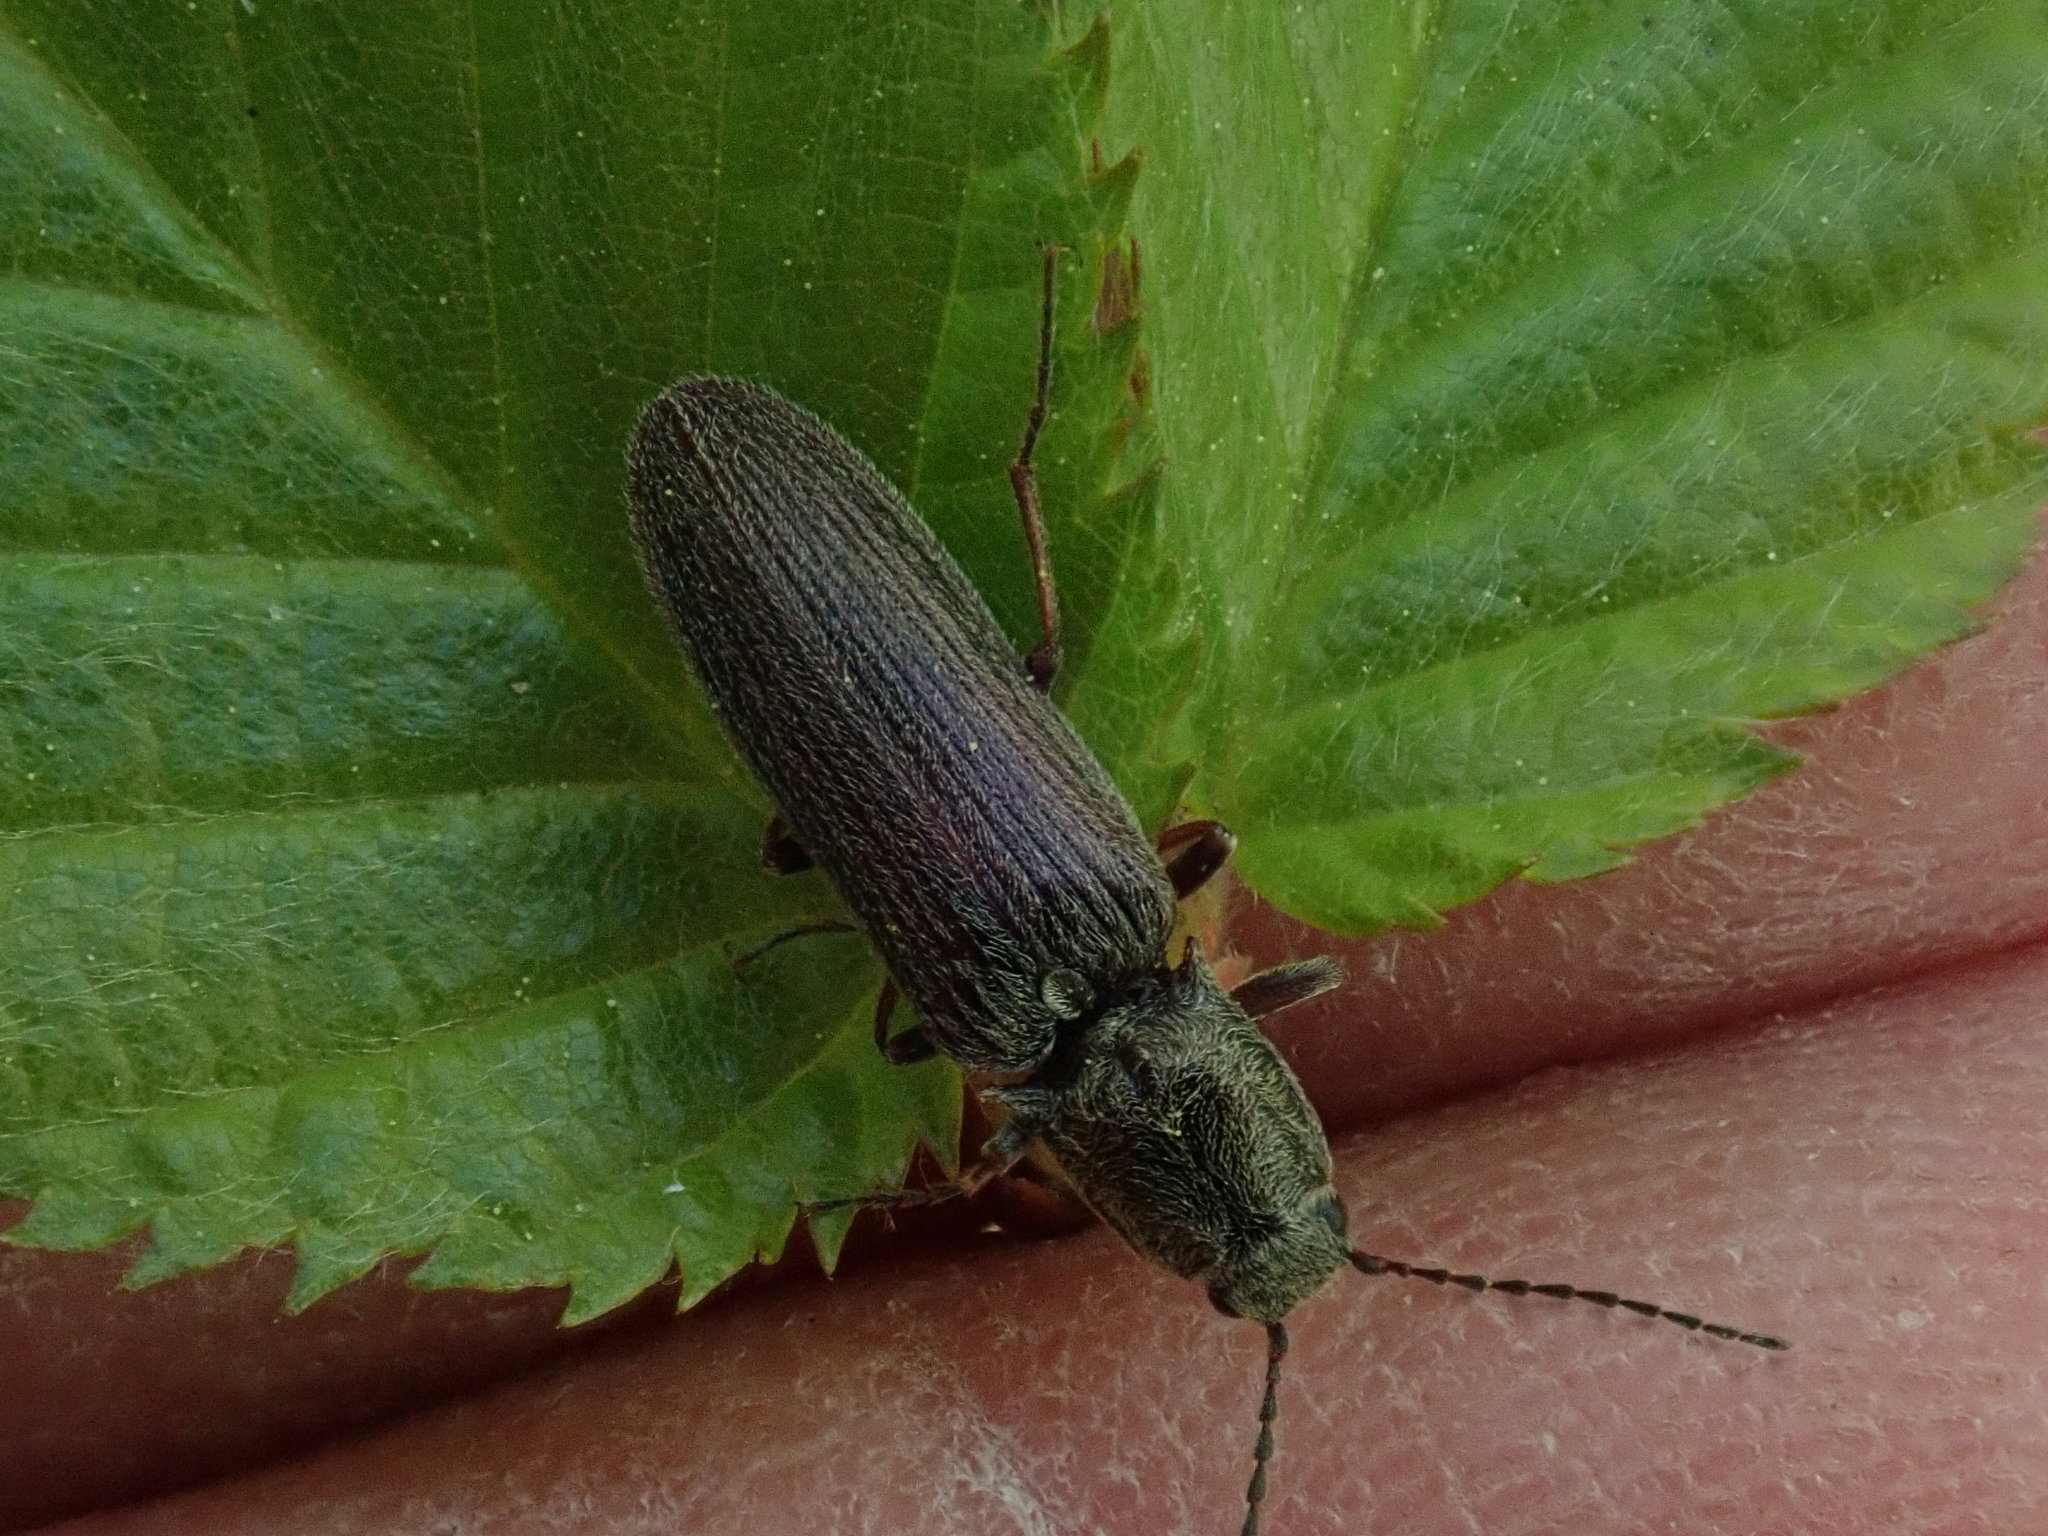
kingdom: Animalia
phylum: Arthropoda
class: Insecta
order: Coleoptera
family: Elateridae
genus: Sylvanelater
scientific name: Sylvanelater cylindriformis
